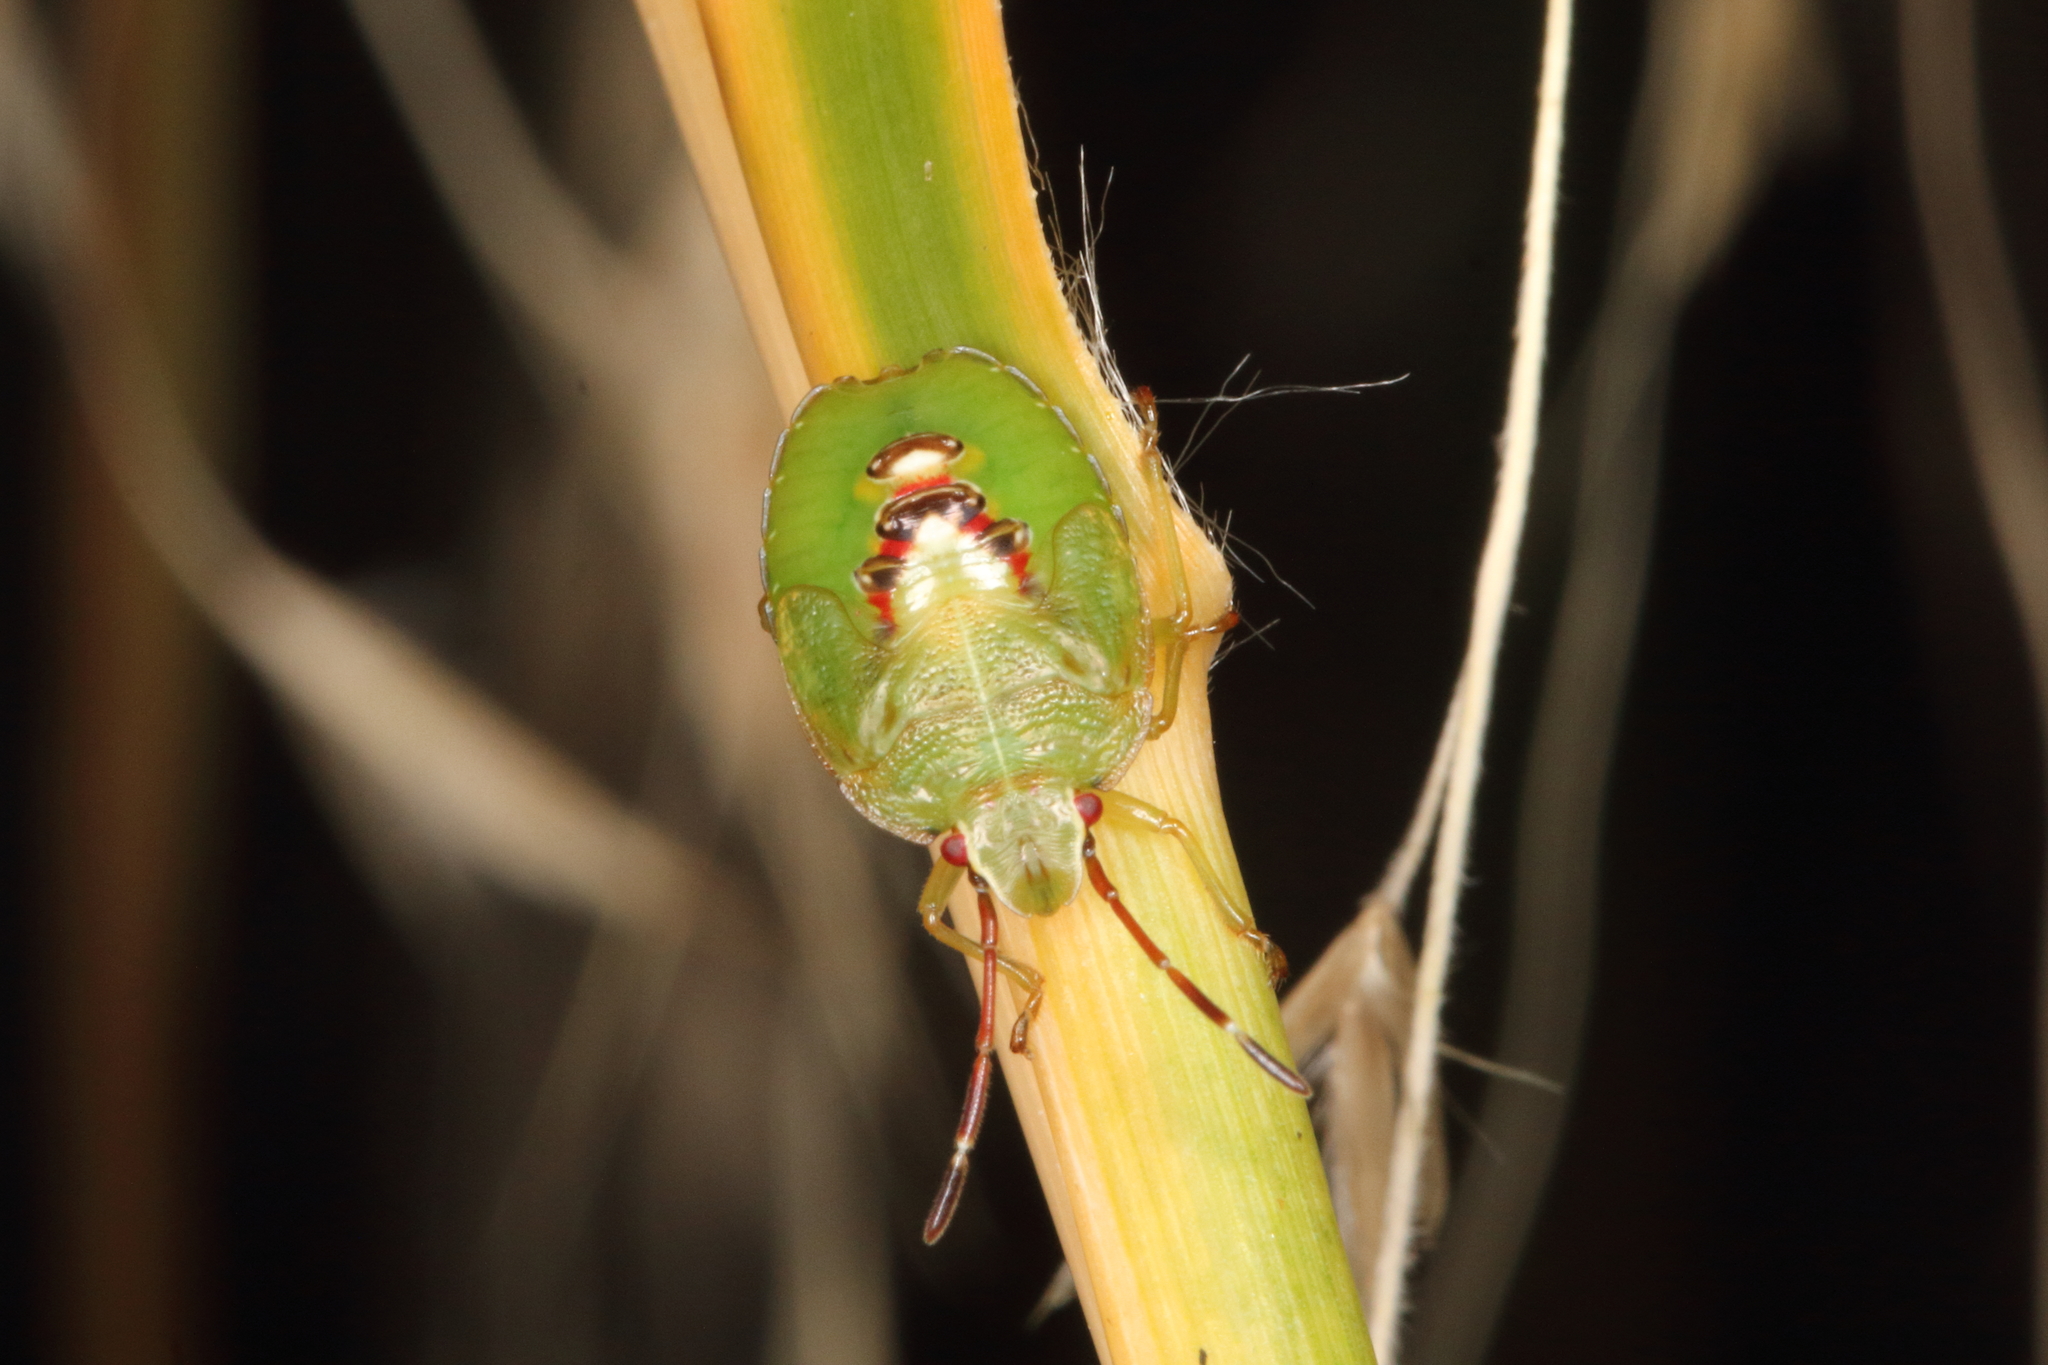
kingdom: Animalia
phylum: Arthropoda
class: Insecta
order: Hemiptera
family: Acanthosomatidae
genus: Oncacontias
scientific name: Oncacontias vittatus
